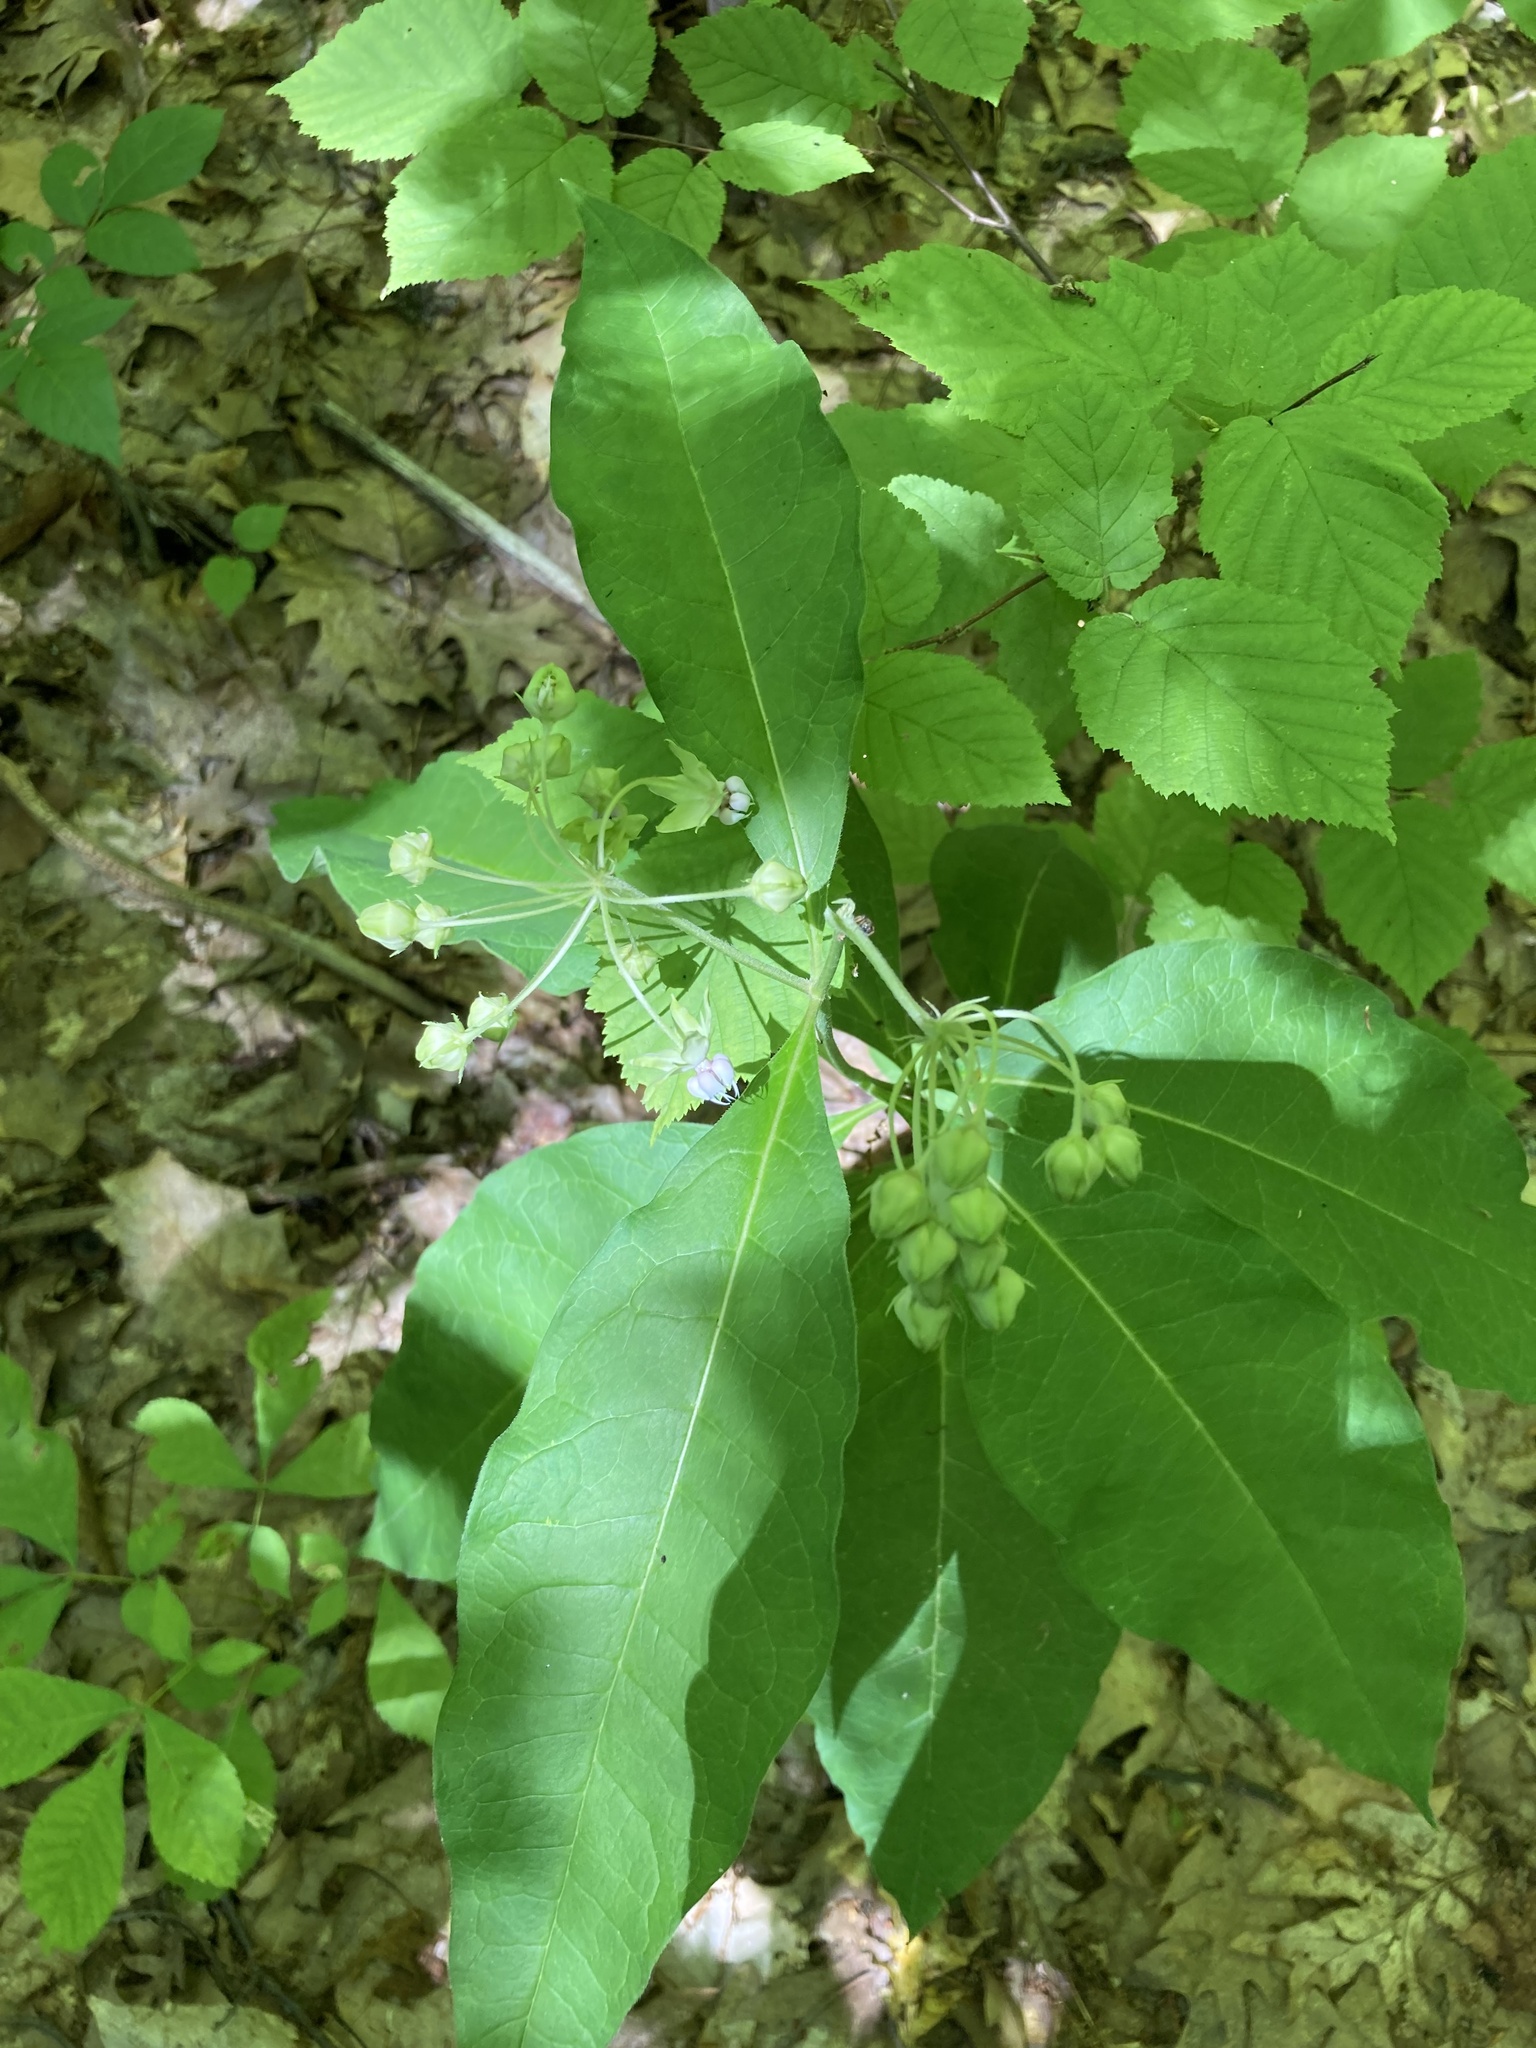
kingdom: Plantae
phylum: Tracheophyta
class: Magnoliopsida
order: Gentianales
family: Apocynaceae
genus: Asclepias
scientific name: Asclepias exaltata
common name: Poke milkweed
